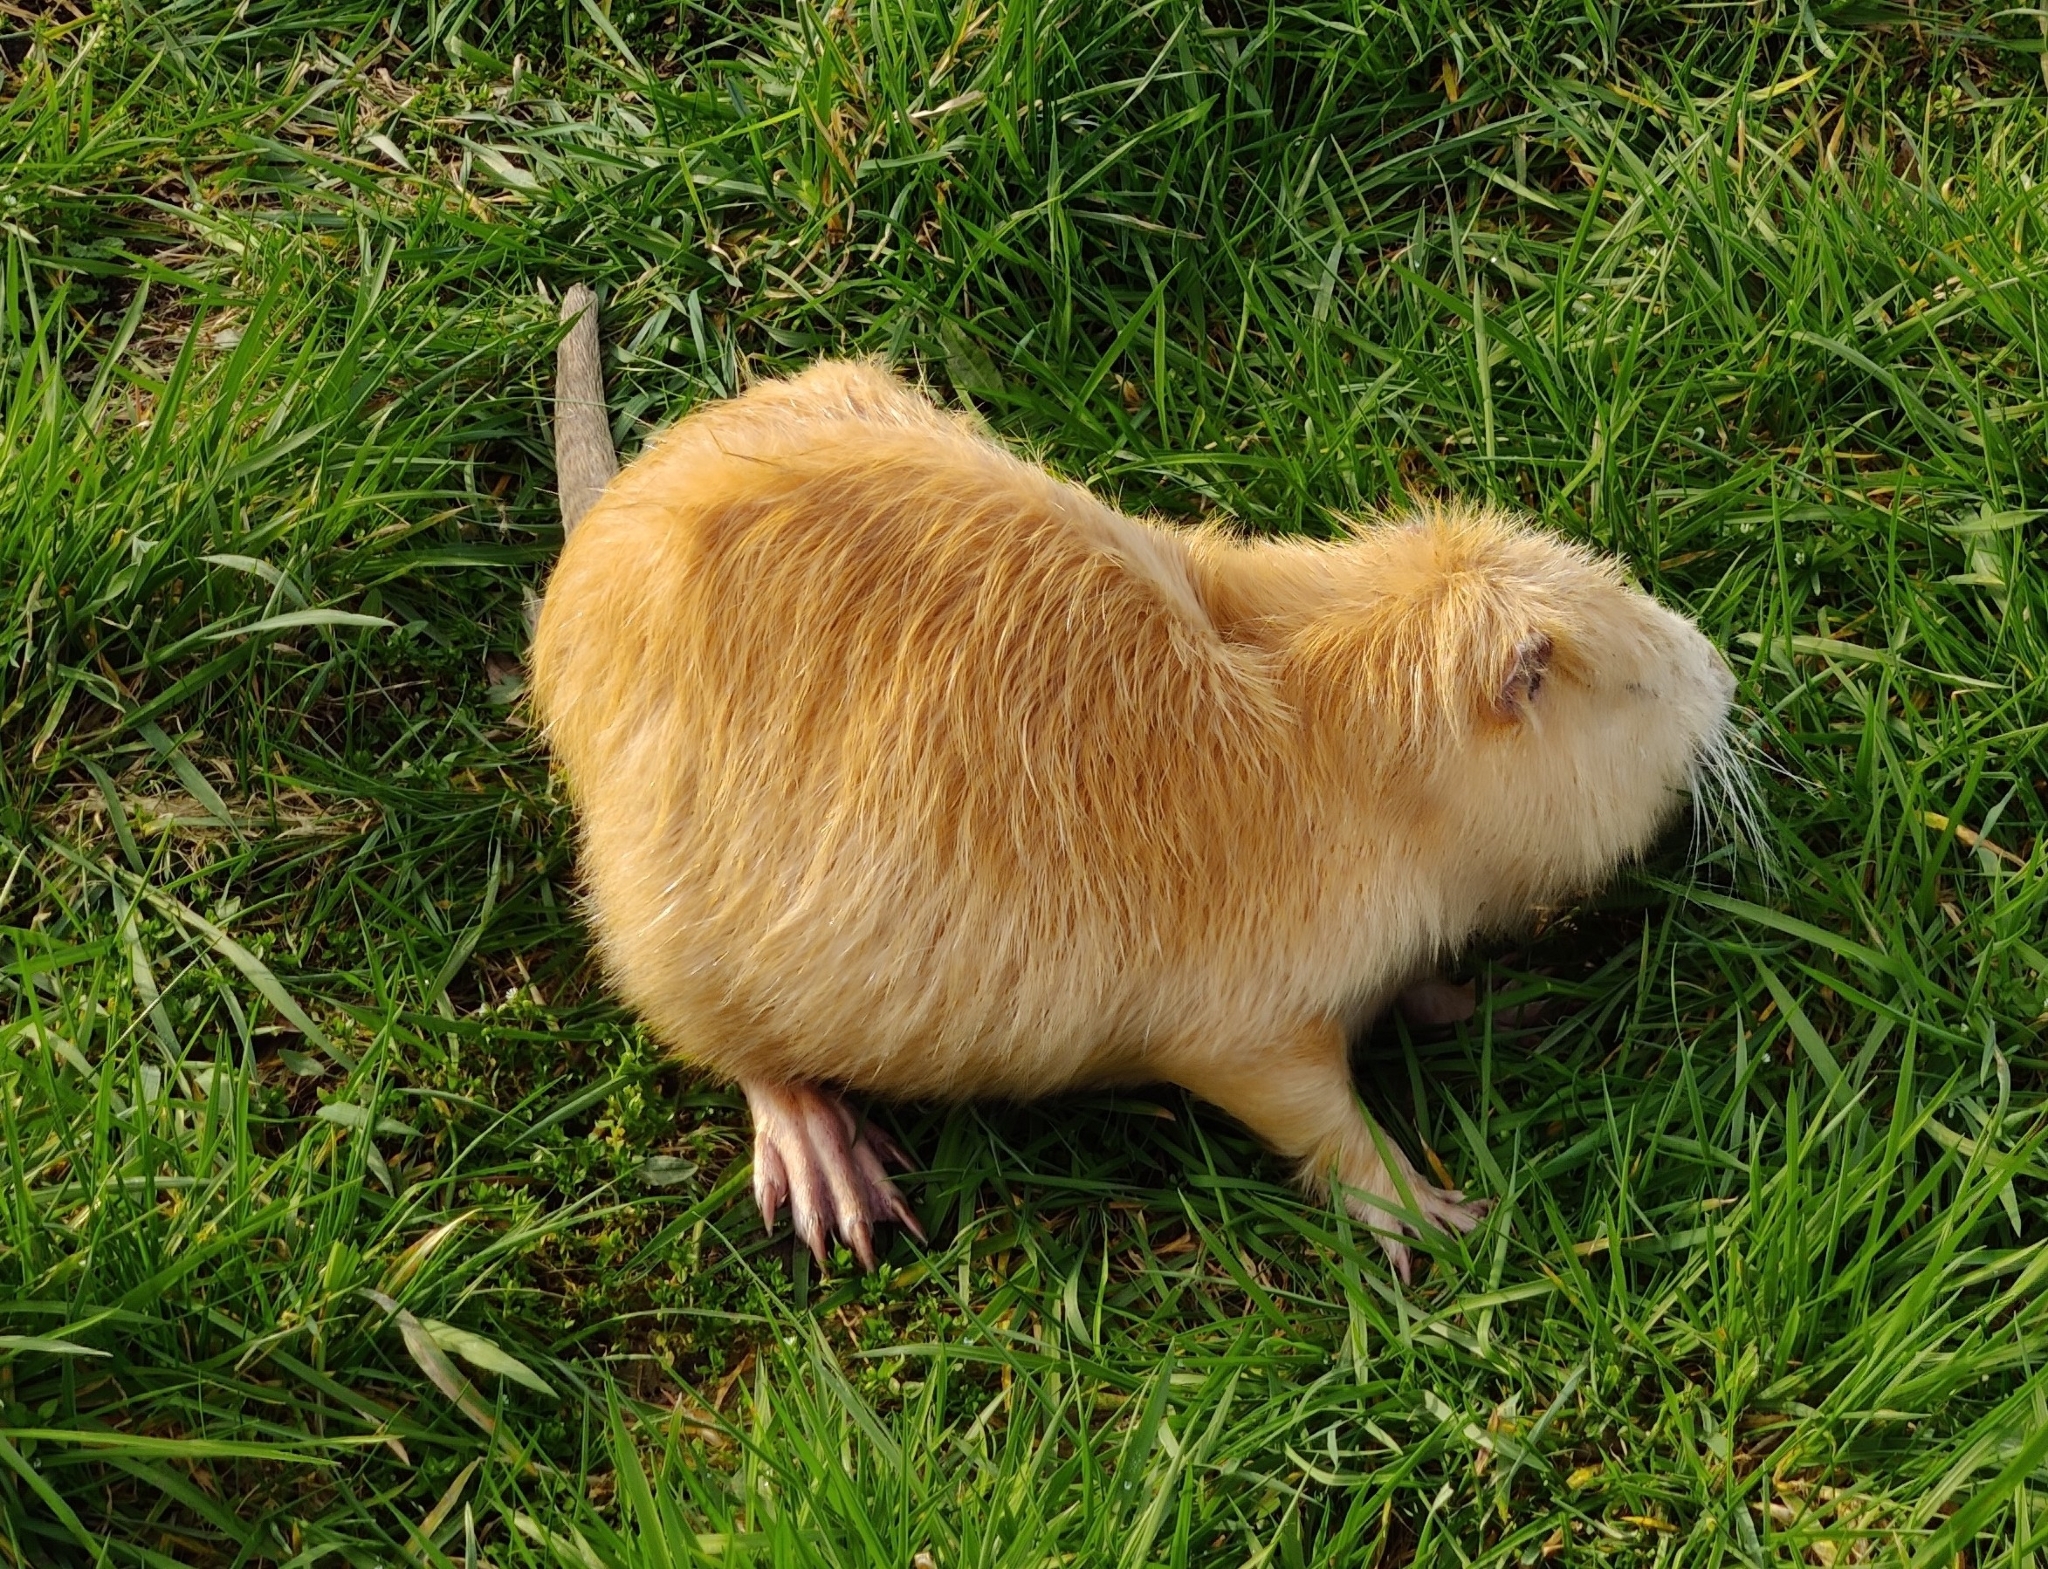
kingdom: Animalia
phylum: Chordata
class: Mammalia
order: Rodentia
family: Myocastoridae
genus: Myocastor
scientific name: Myocastor coypus
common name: Coypu
